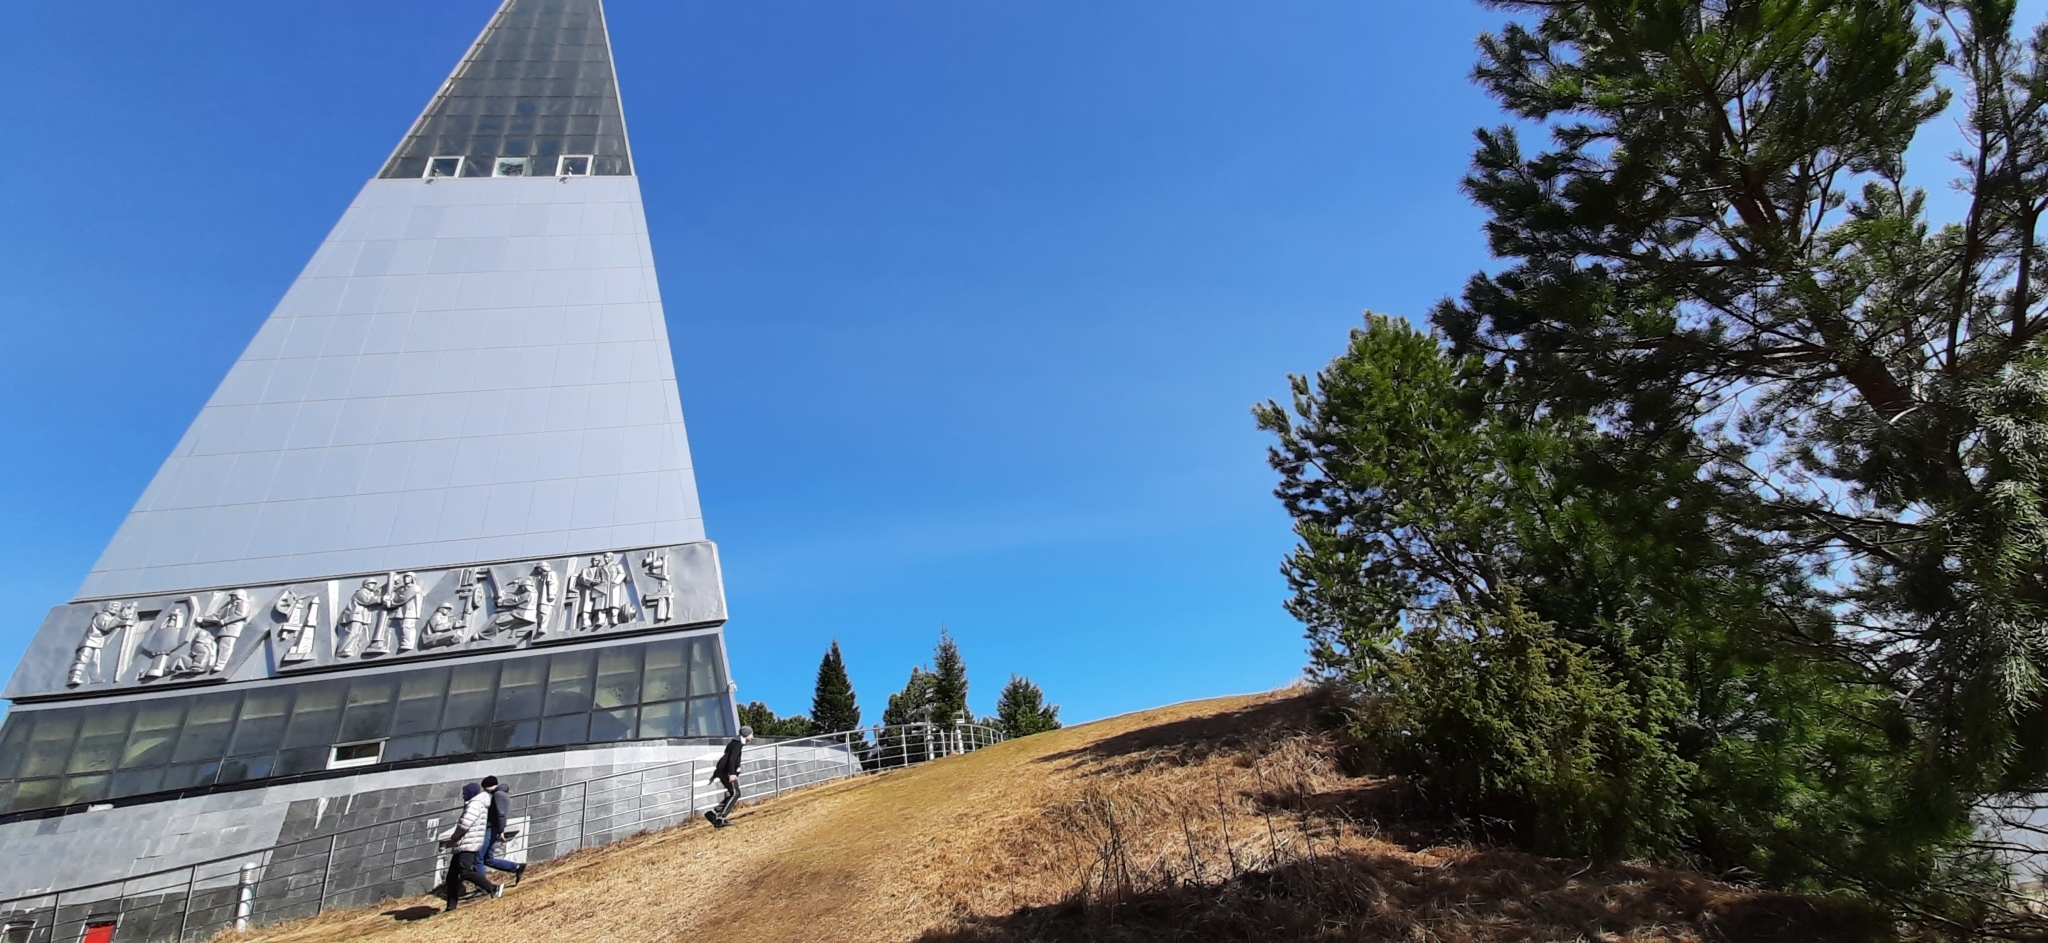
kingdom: Plantae
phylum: Tracheophyta
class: Pinopsida
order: Pinales
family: Pinaceae
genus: Pinus
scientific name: Pinus sylvestris
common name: Scots pine
